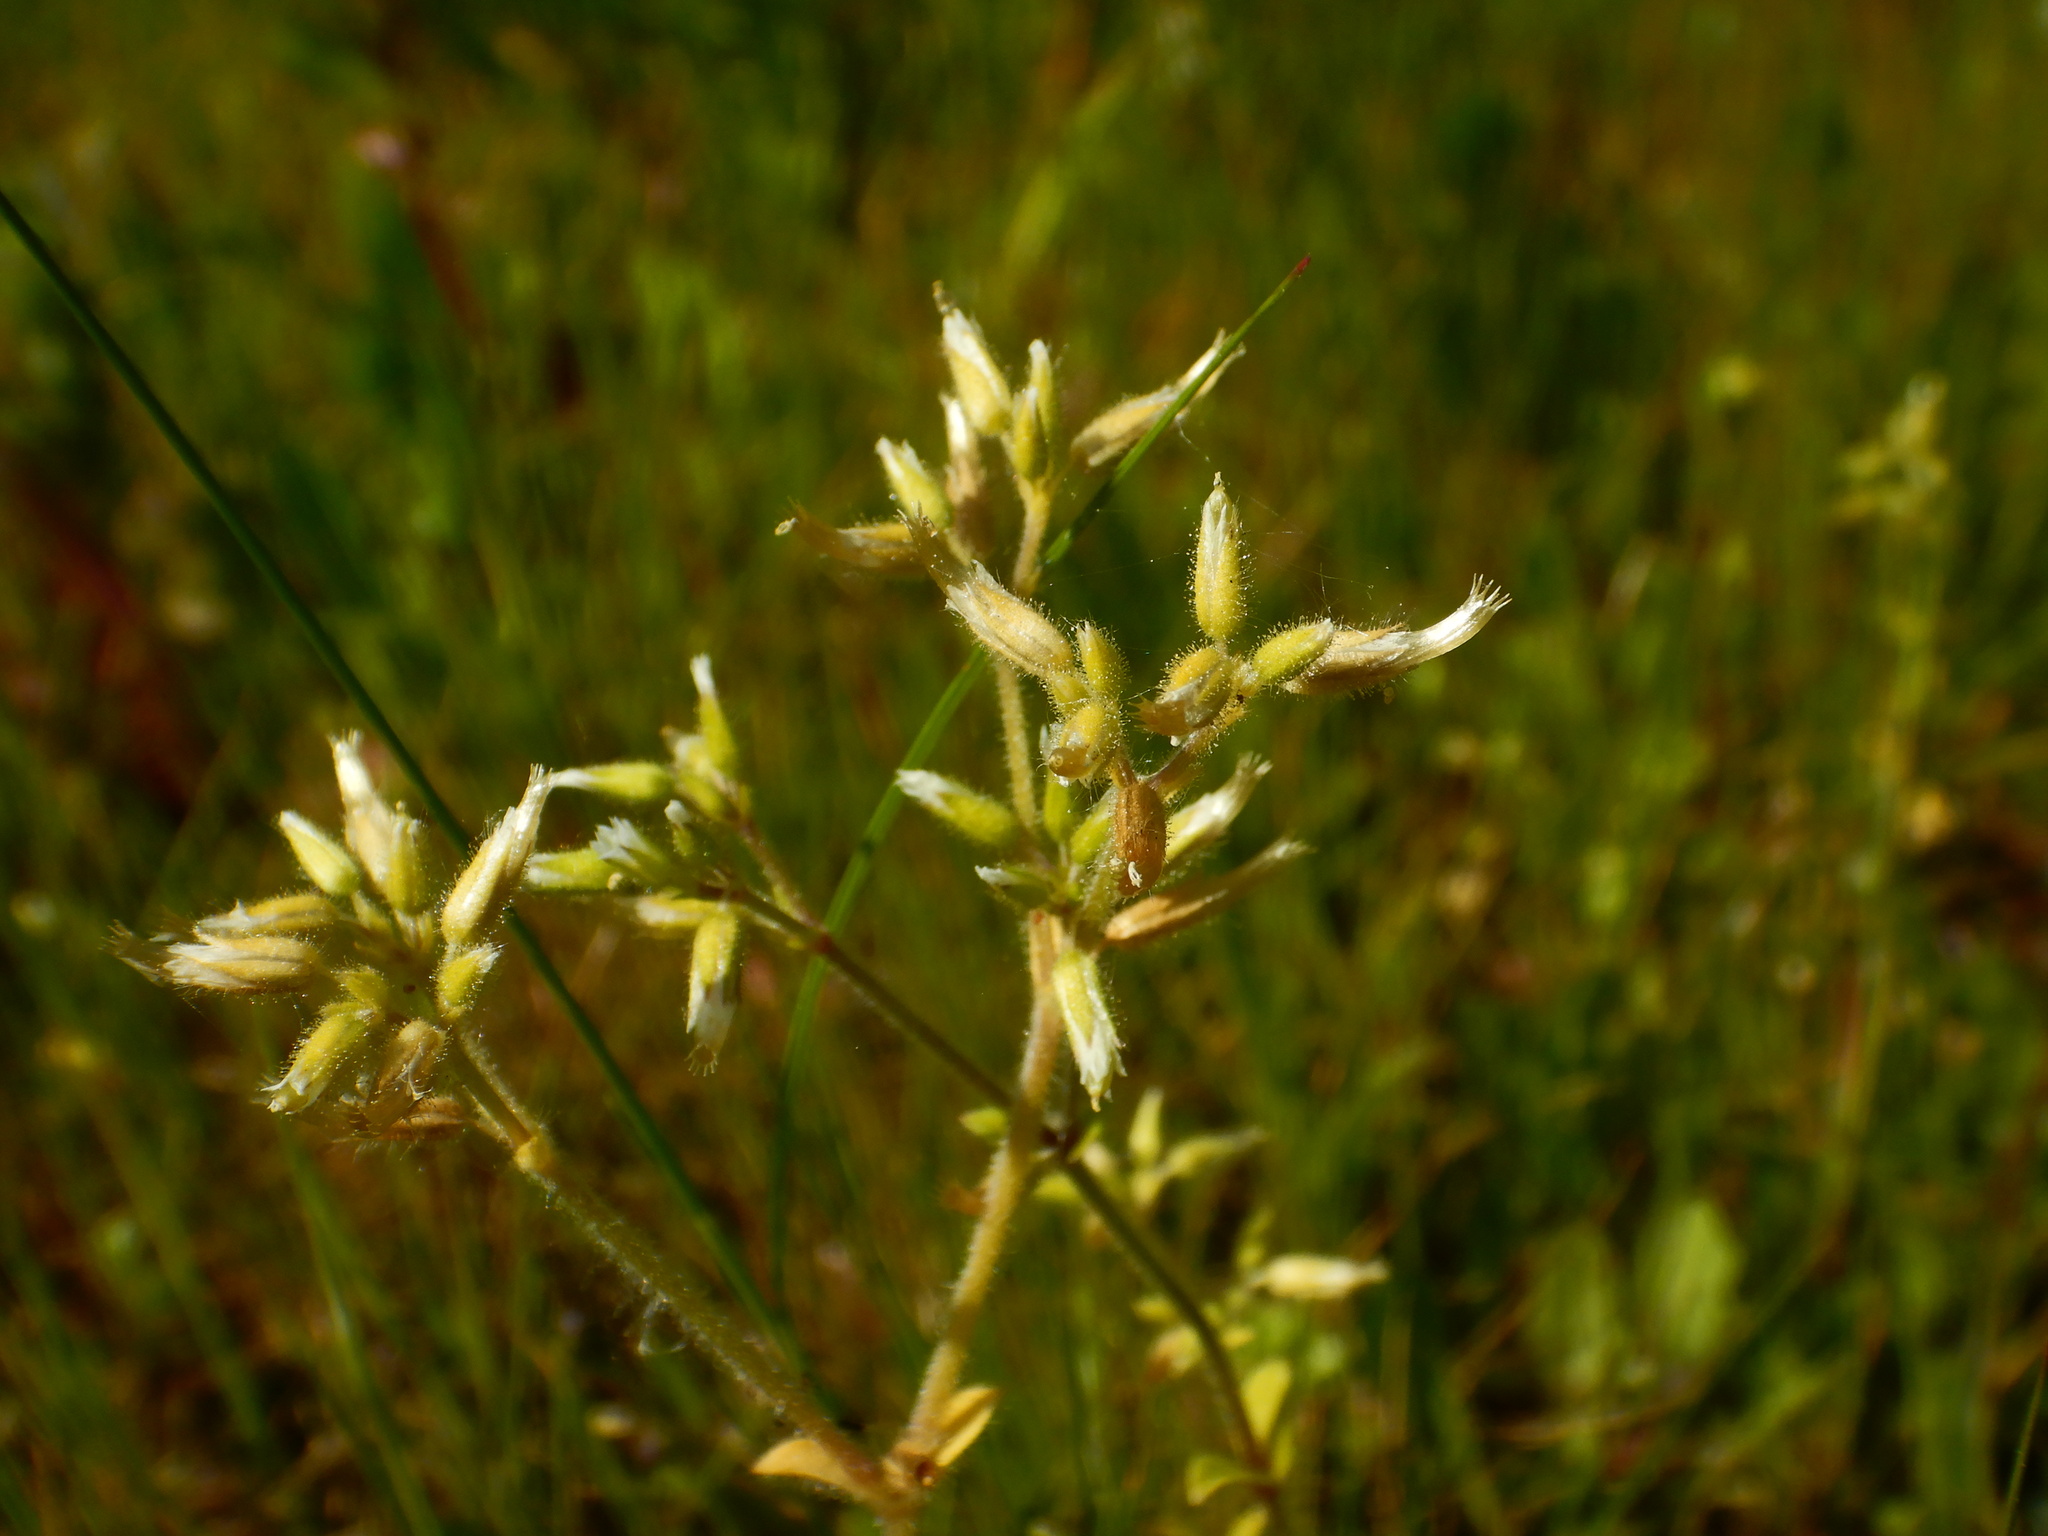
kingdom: Plantae
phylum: Tracheophyta
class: Magnoliopsida
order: Caryophyllales
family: Caryophyllaceae
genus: Cerastium
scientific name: Cerastium glomeratum
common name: Sticky chickweed
